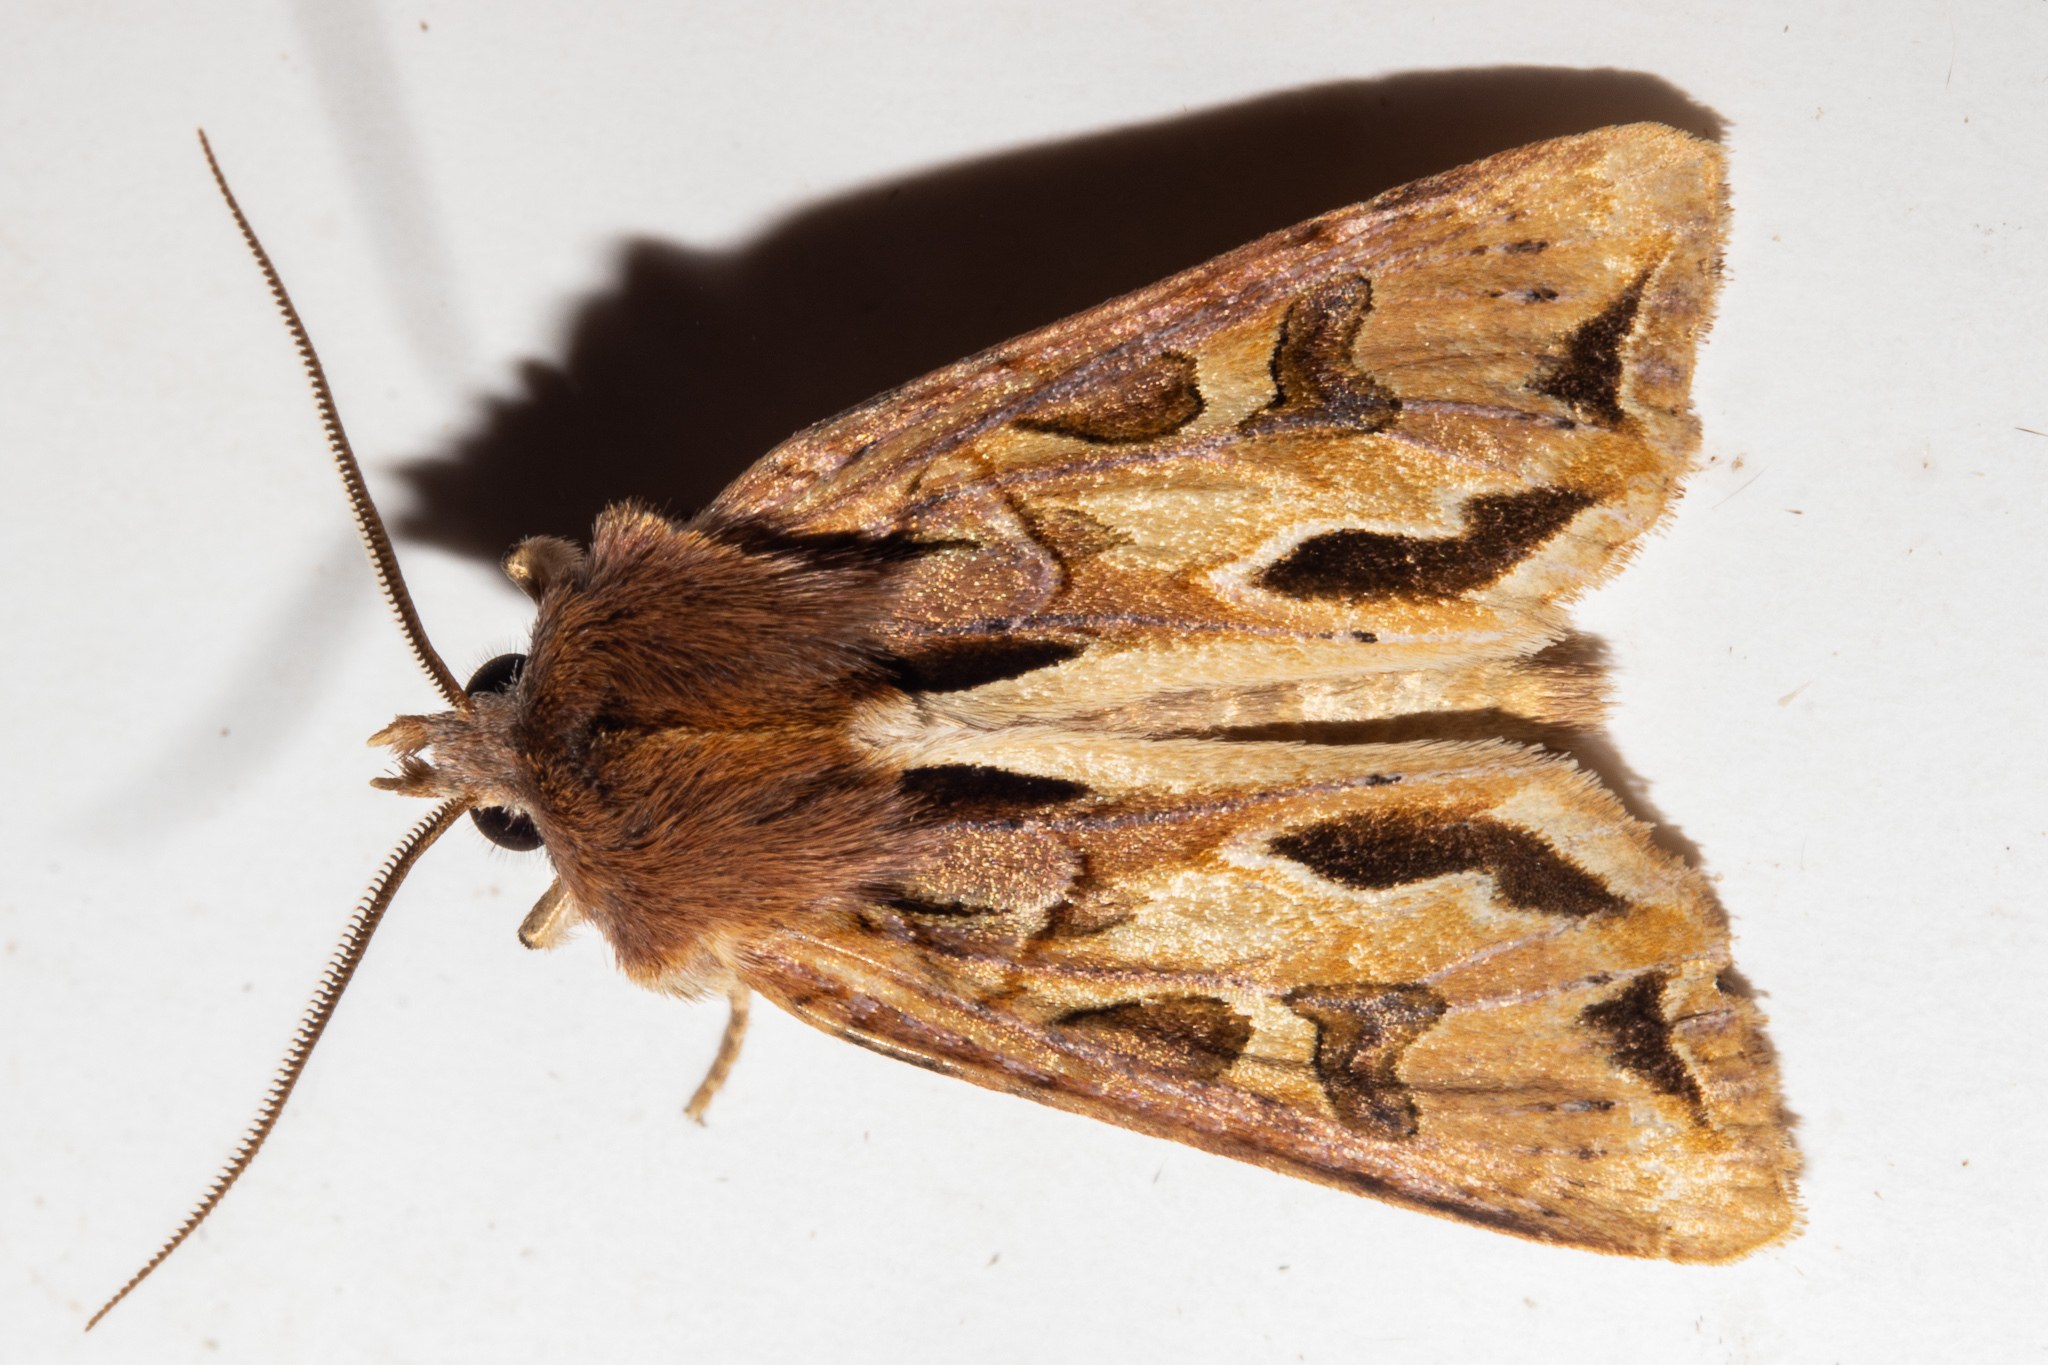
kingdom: Animalia
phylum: Arthropoda
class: Insecta
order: Lepidoptera
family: Noctuidae
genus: Ichneutica
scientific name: Ichneutica
